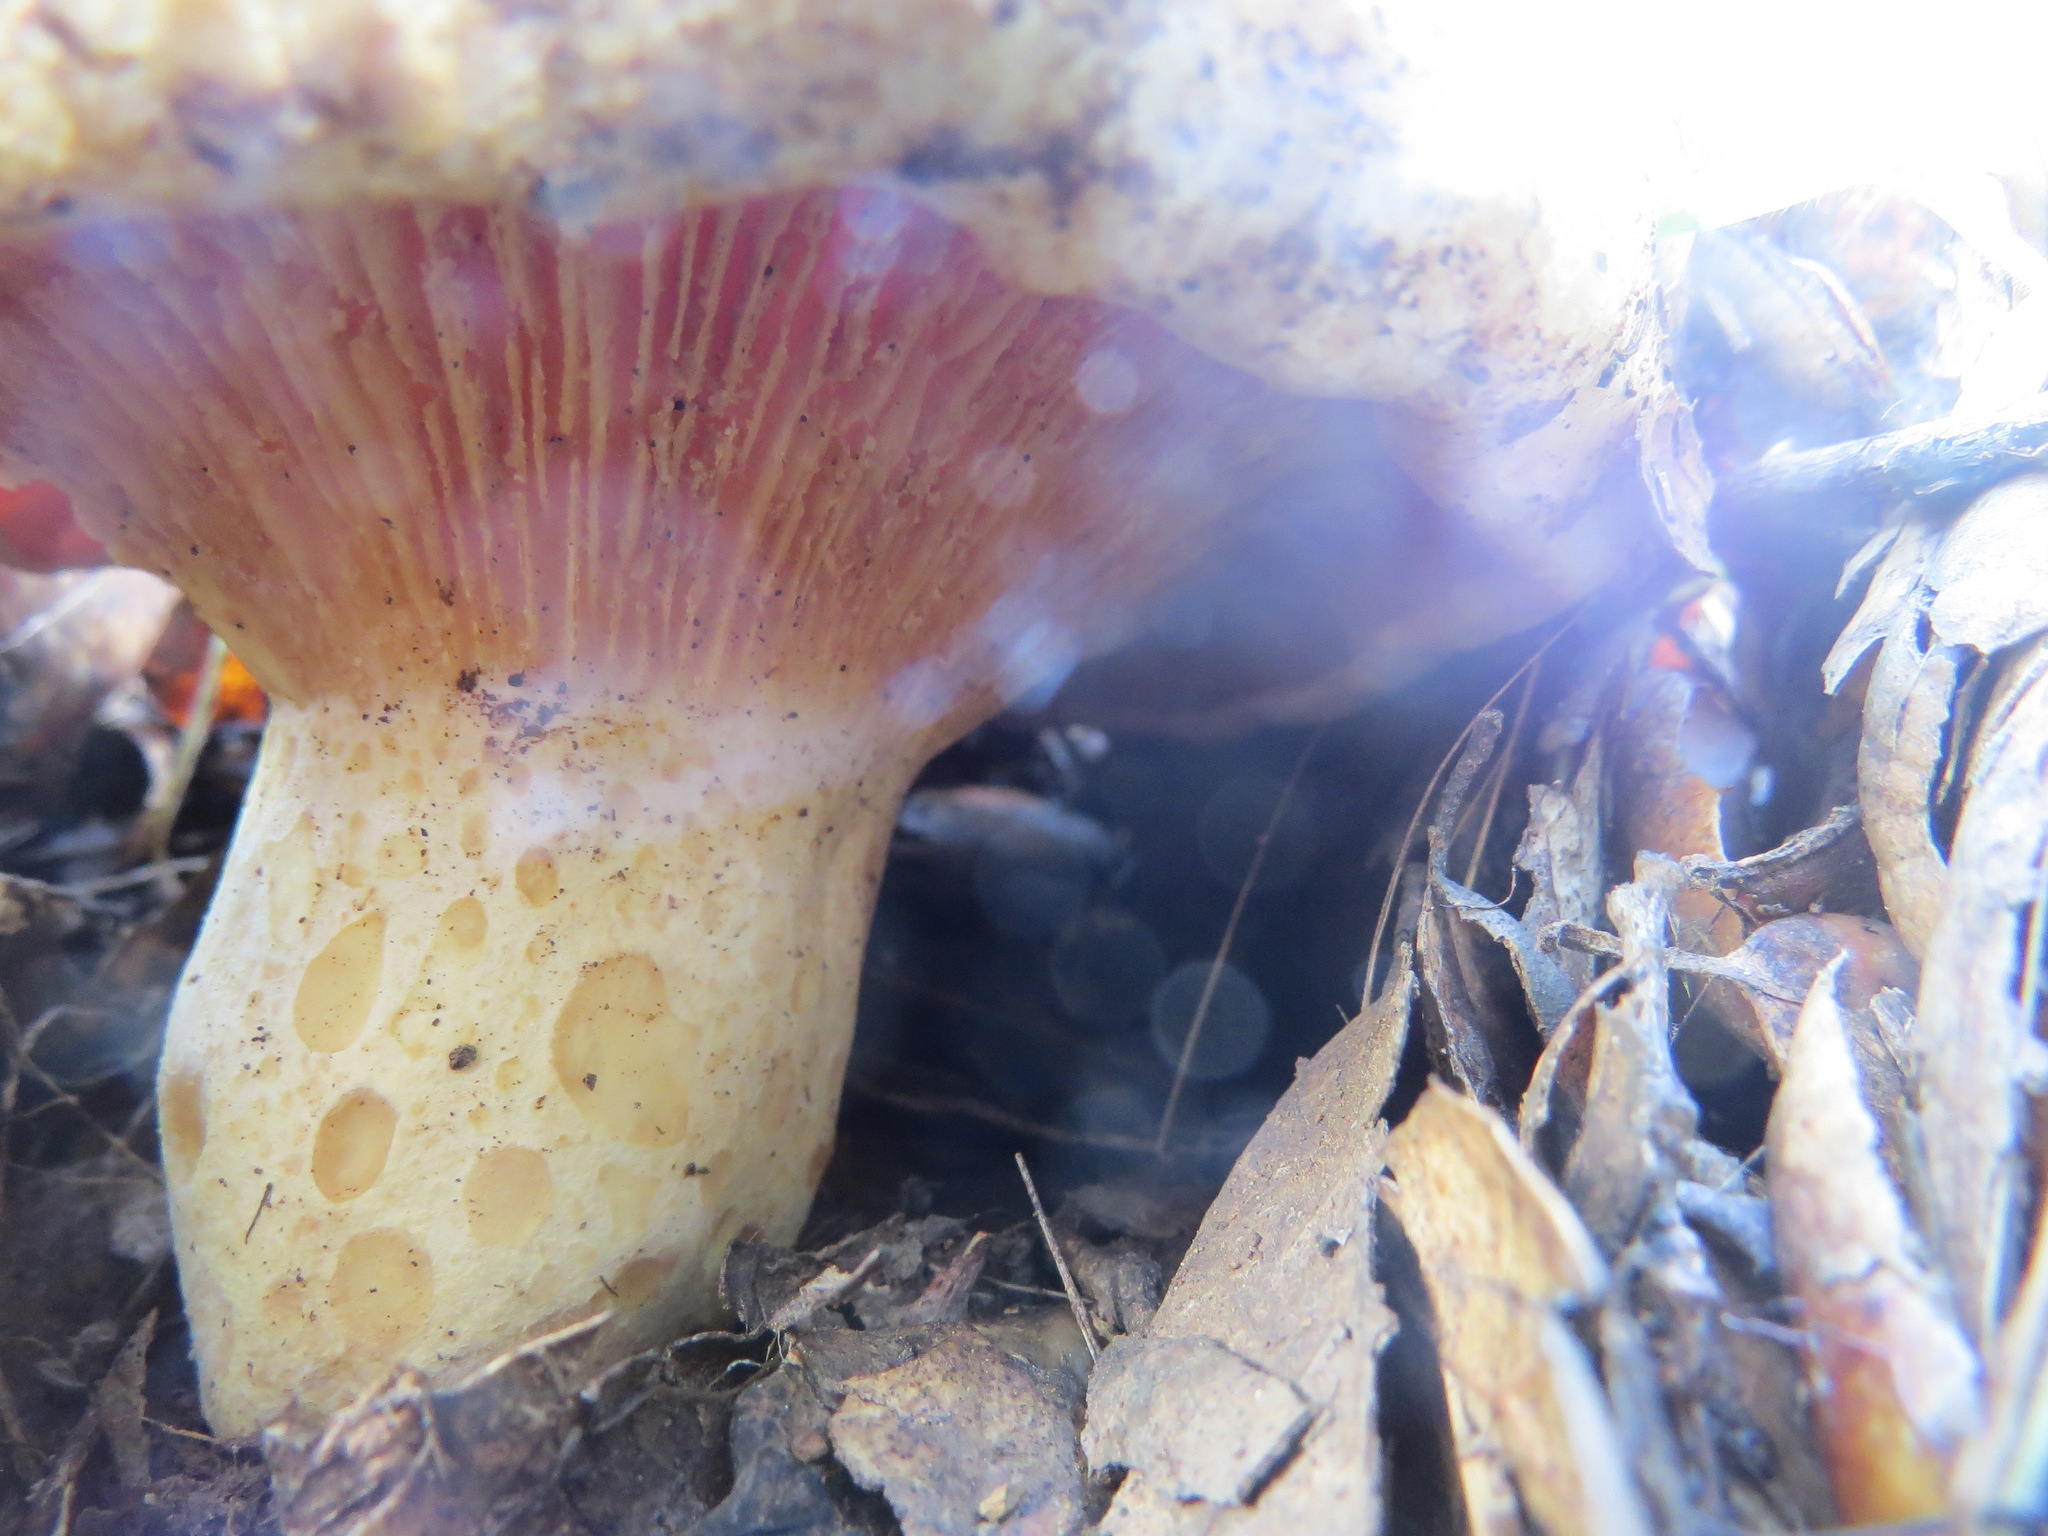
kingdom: Fungi
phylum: Basidiomycota
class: Agaricomycetes
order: Russulales
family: Russulaceae
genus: Lactarius
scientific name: Lactarius alnicola
